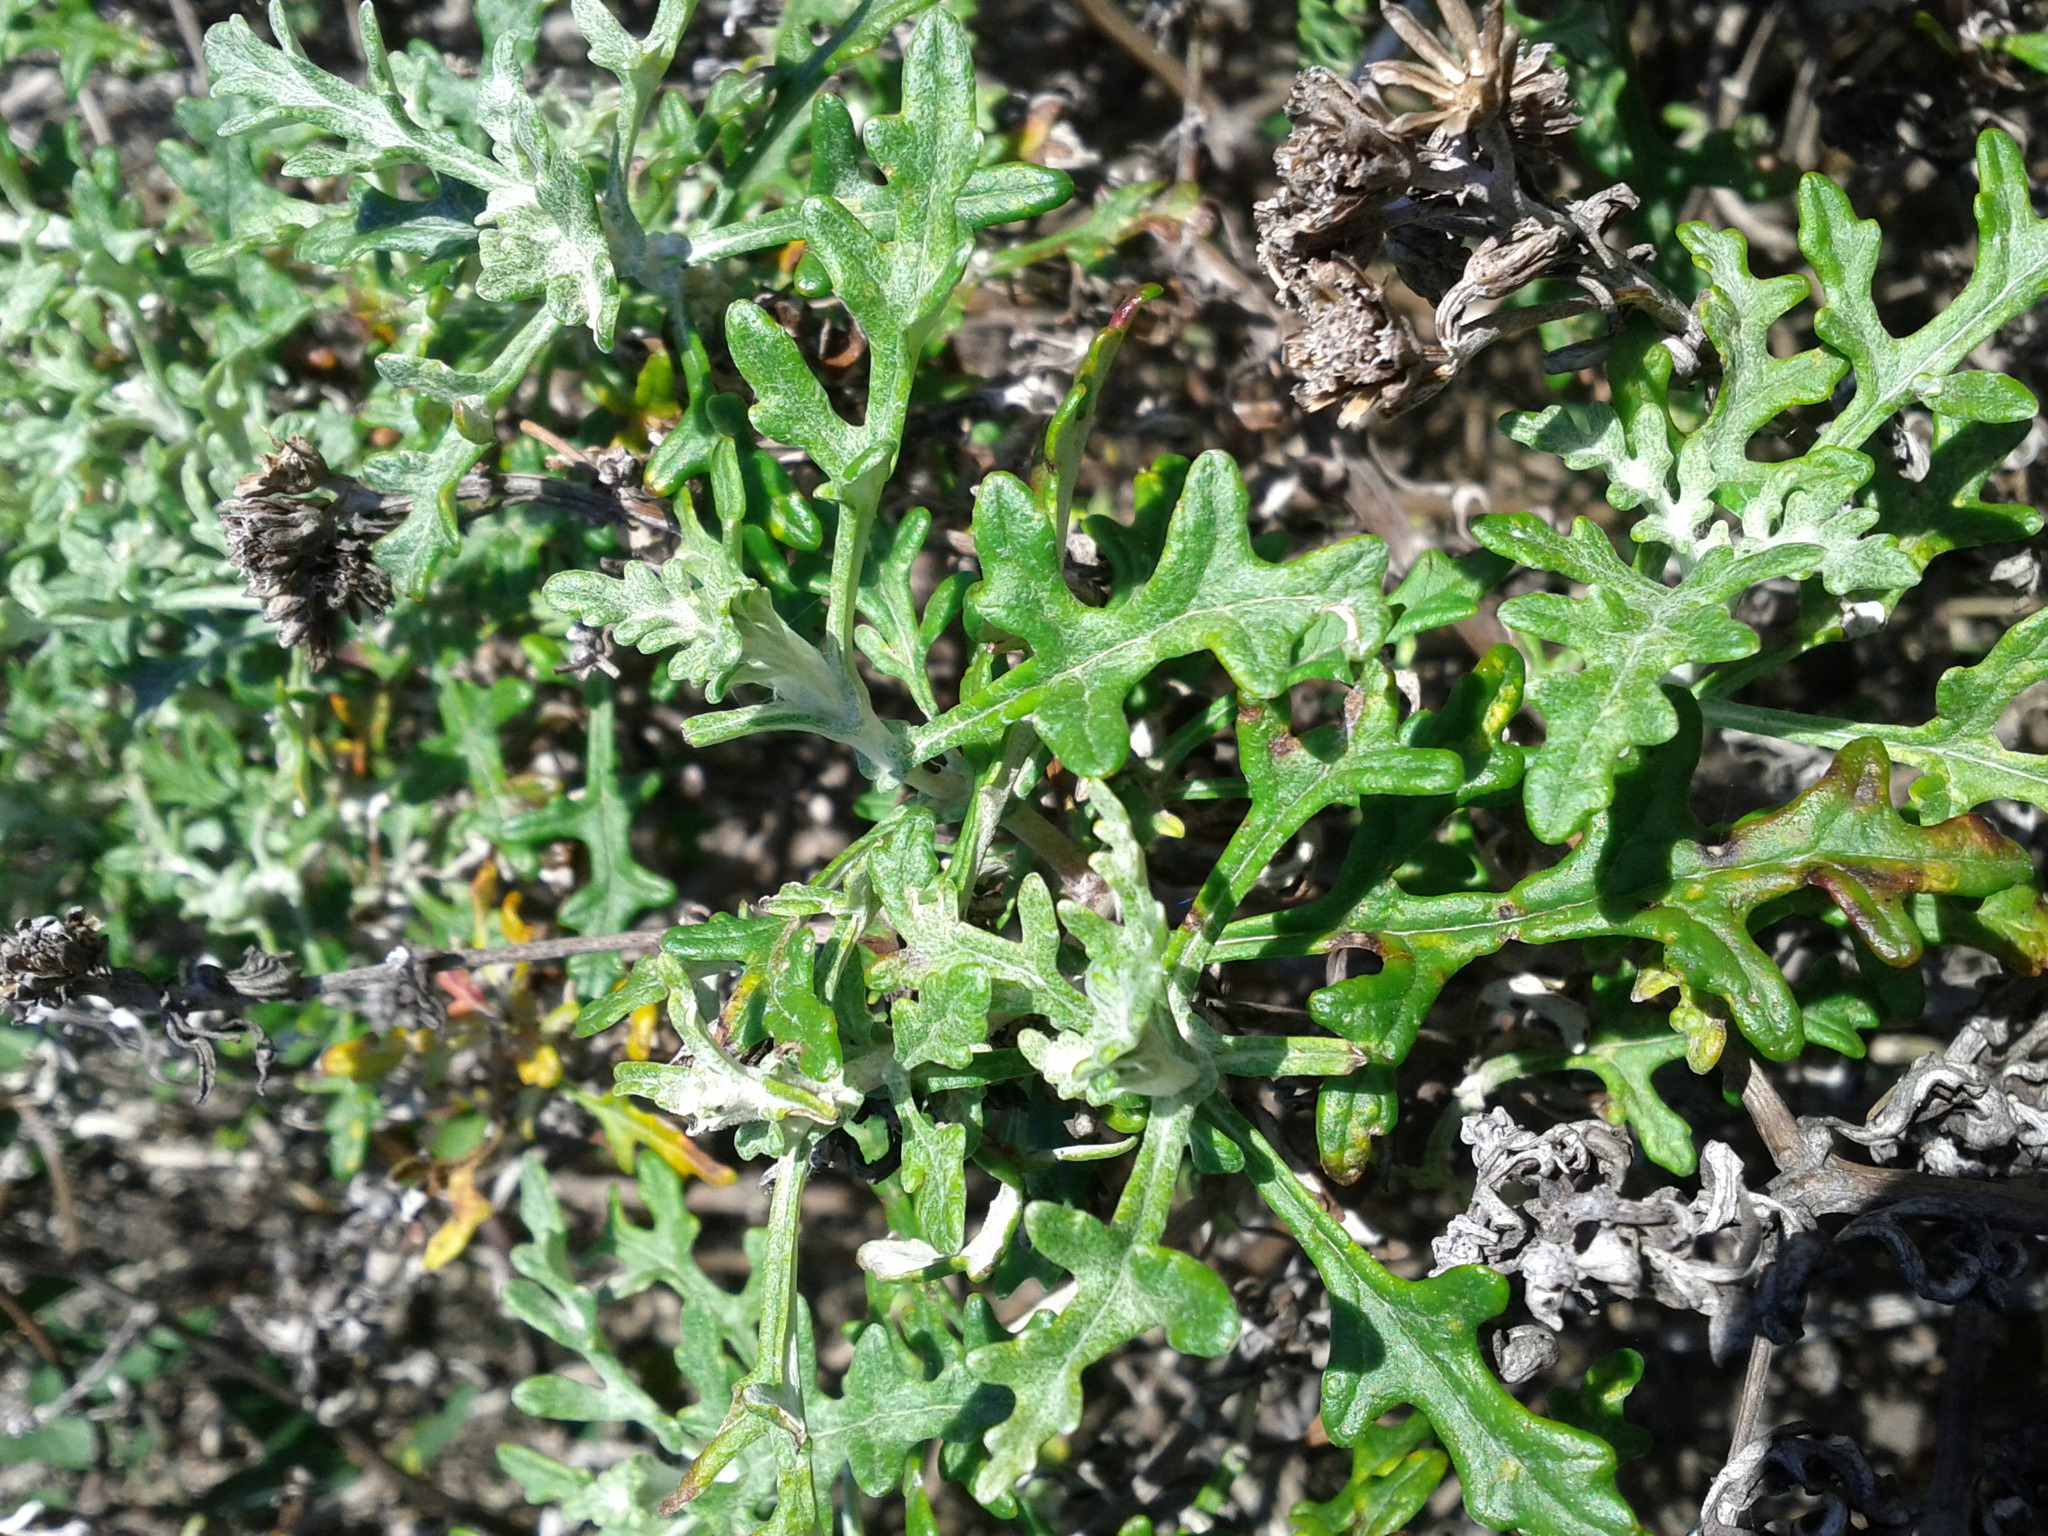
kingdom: Plantae
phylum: Tracheophyta
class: Magnoliopsida
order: Asterales
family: Asteraceae
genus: Eriophyllum
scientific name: Eriophyllum staechadifolium
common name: Lizardtail
